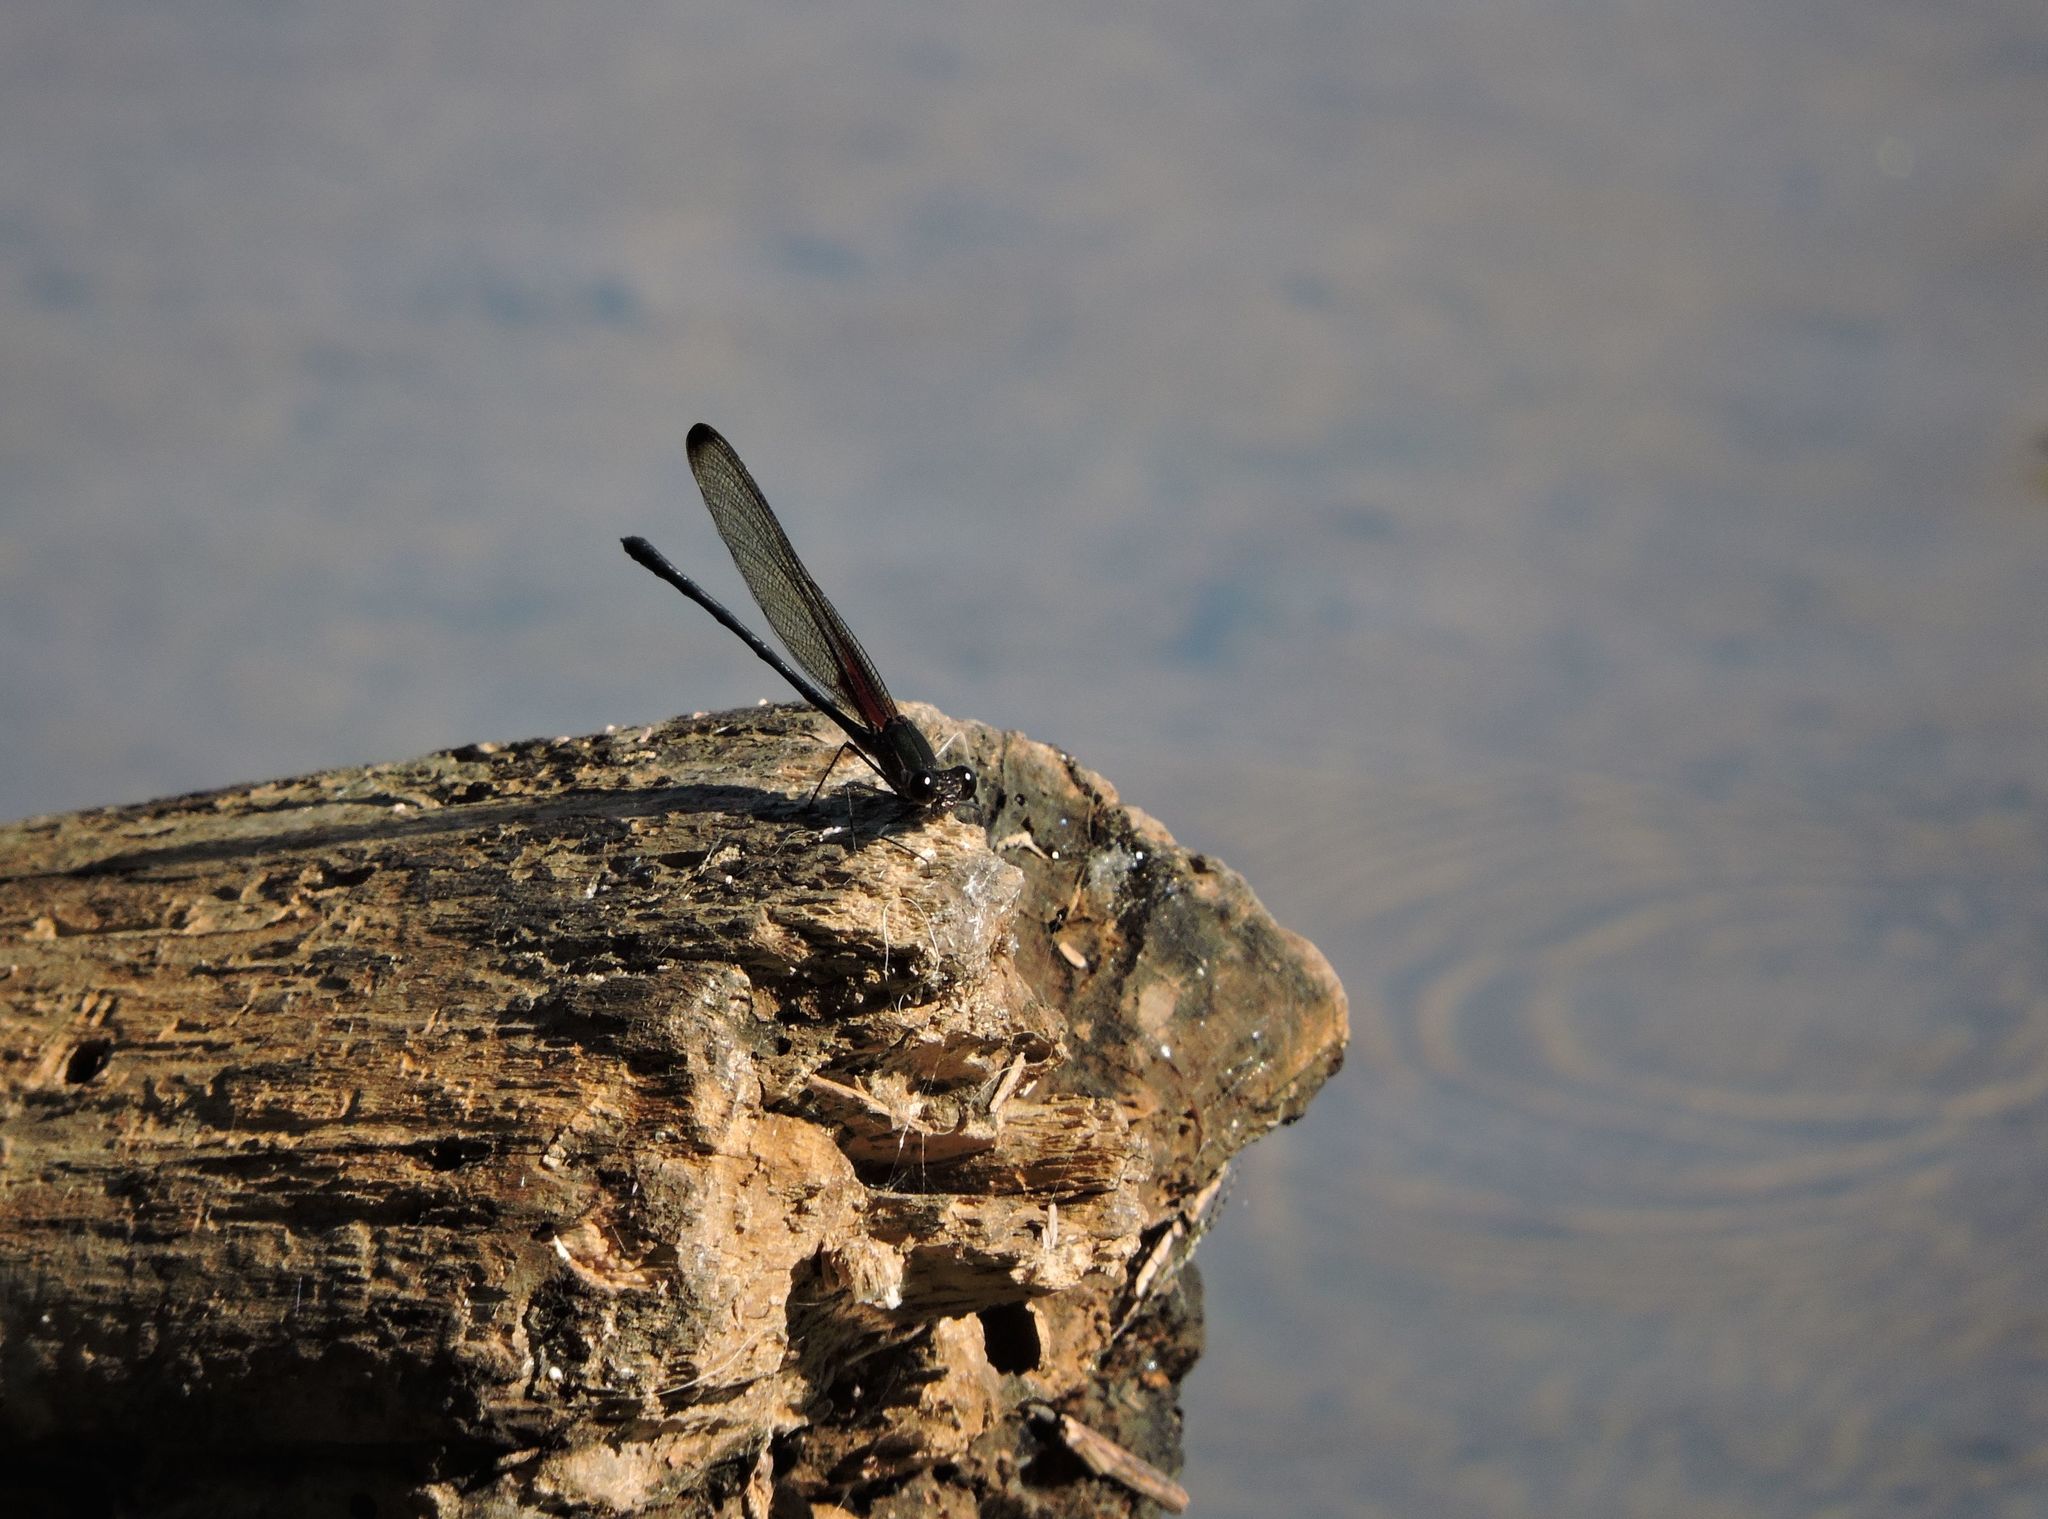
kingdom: Animalia
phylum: Arthropoda
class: Insecta
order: Odonata
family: Calopterygidae
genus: Hetaerina
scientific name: Hetaerina titia
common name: Smoky rubyspot
